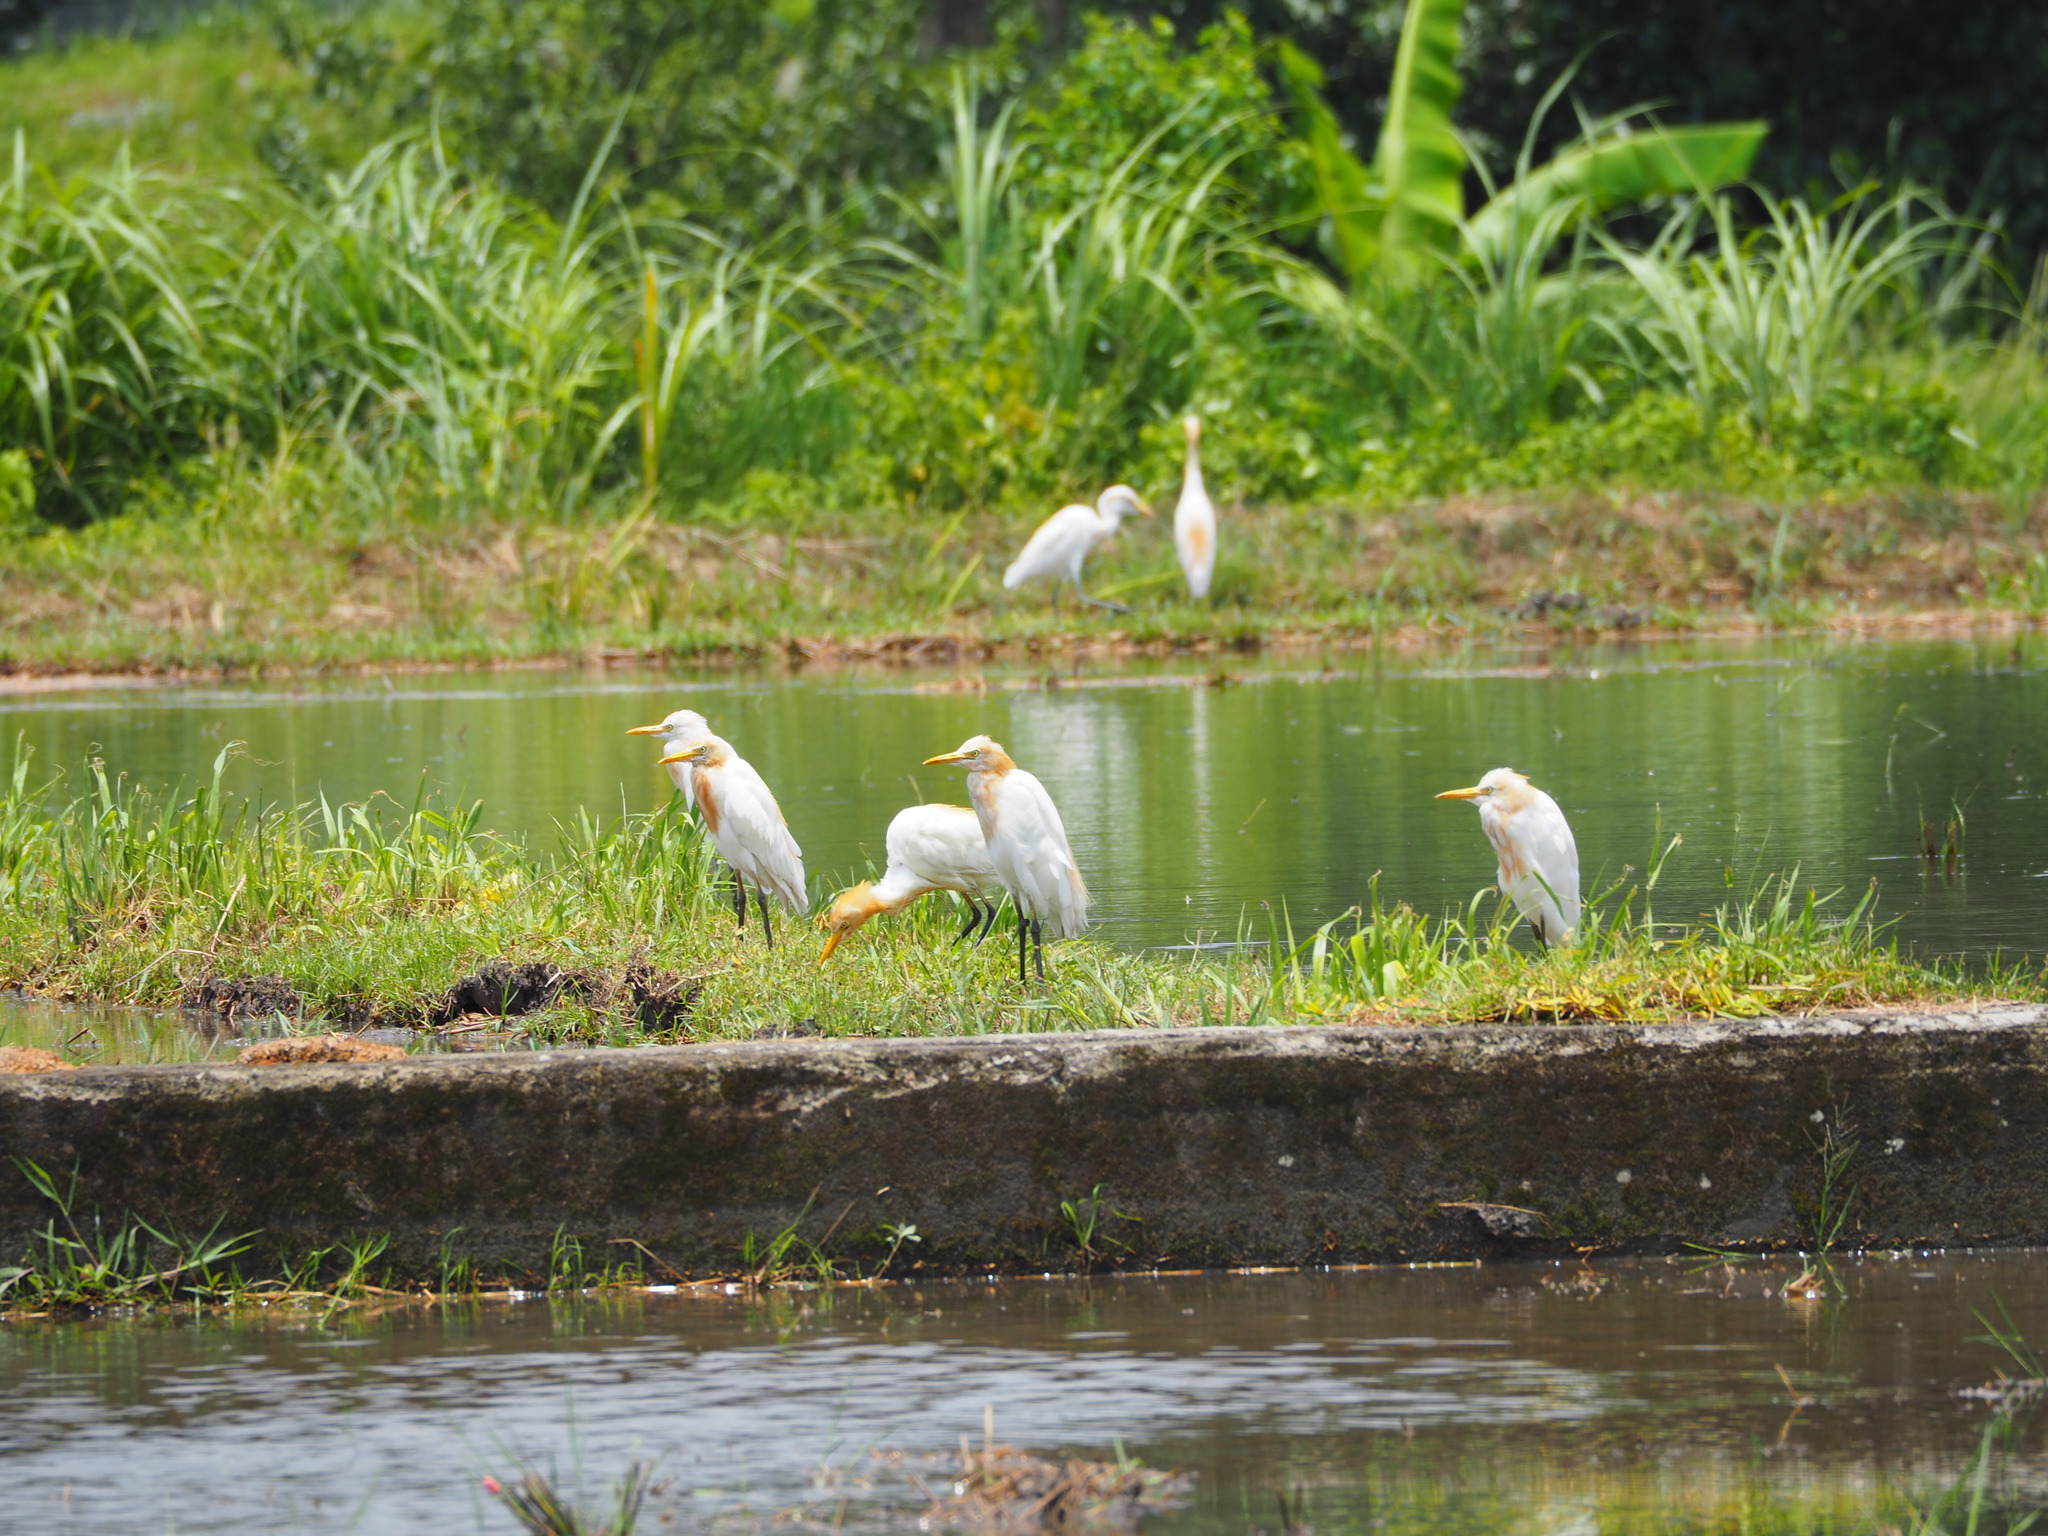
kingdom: Animalia
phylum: Chordata
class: Aves
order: Pelecaniformes
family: Ardeidae
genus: Bubulcus
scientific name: Bubulcus coromandus
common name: Eastern cattle egret
